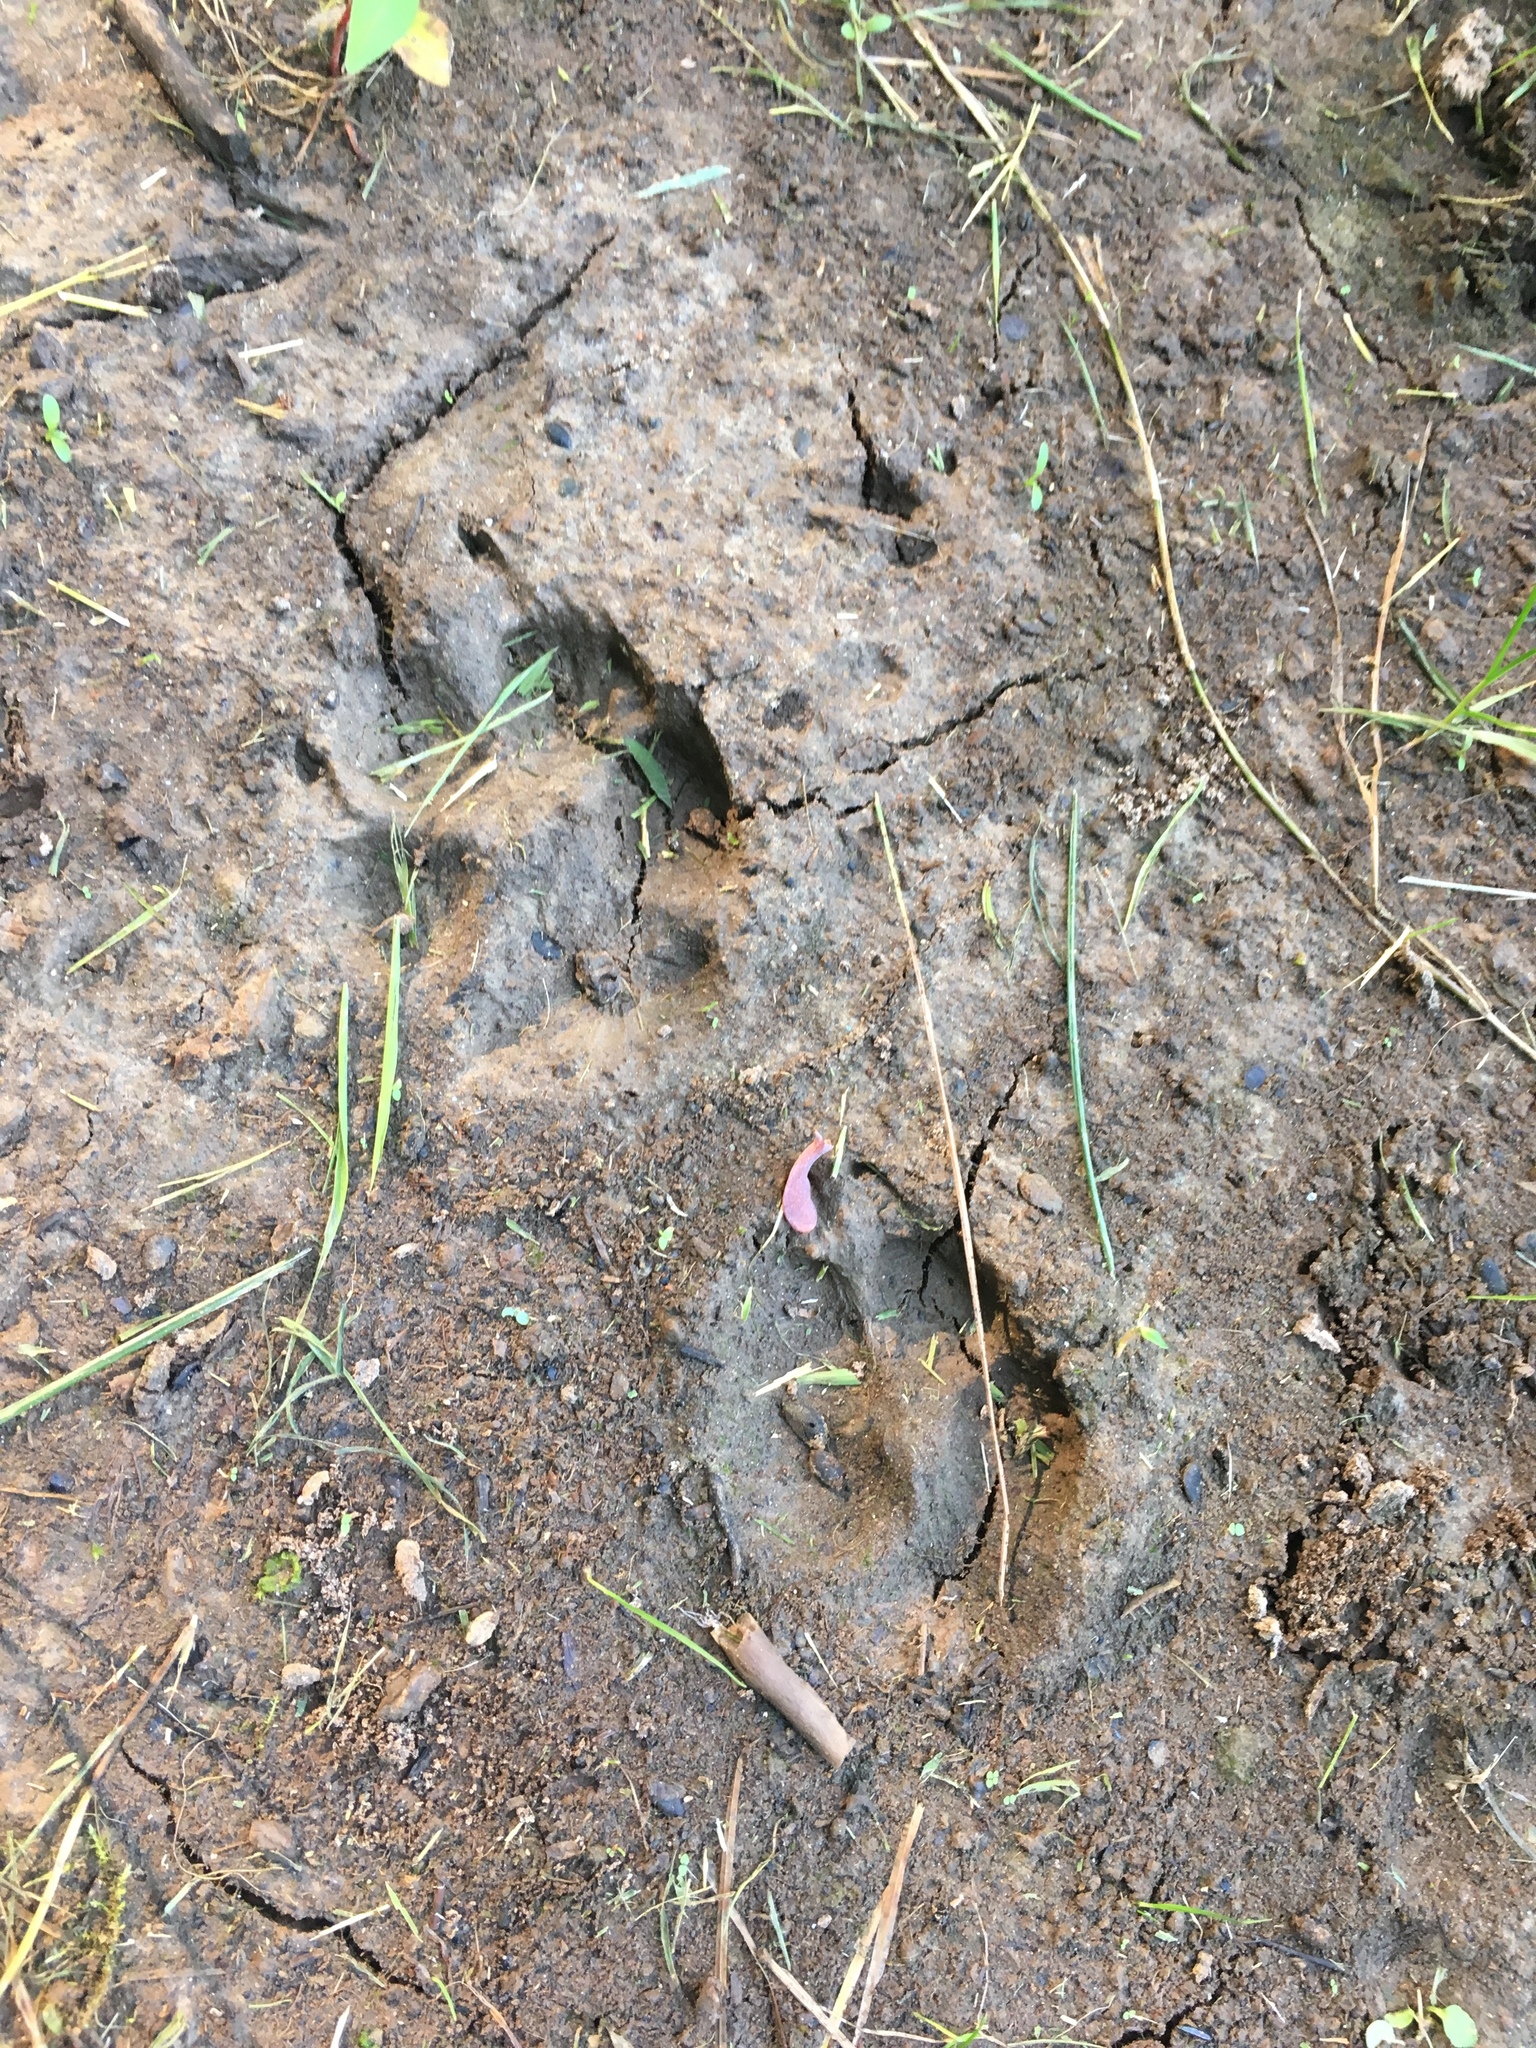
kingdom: Animalia
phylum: Chordata
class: Mammalia
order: Carnivora
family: Canidae
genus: Vulpes
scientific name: Vulpes vulpes
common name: Red fox
